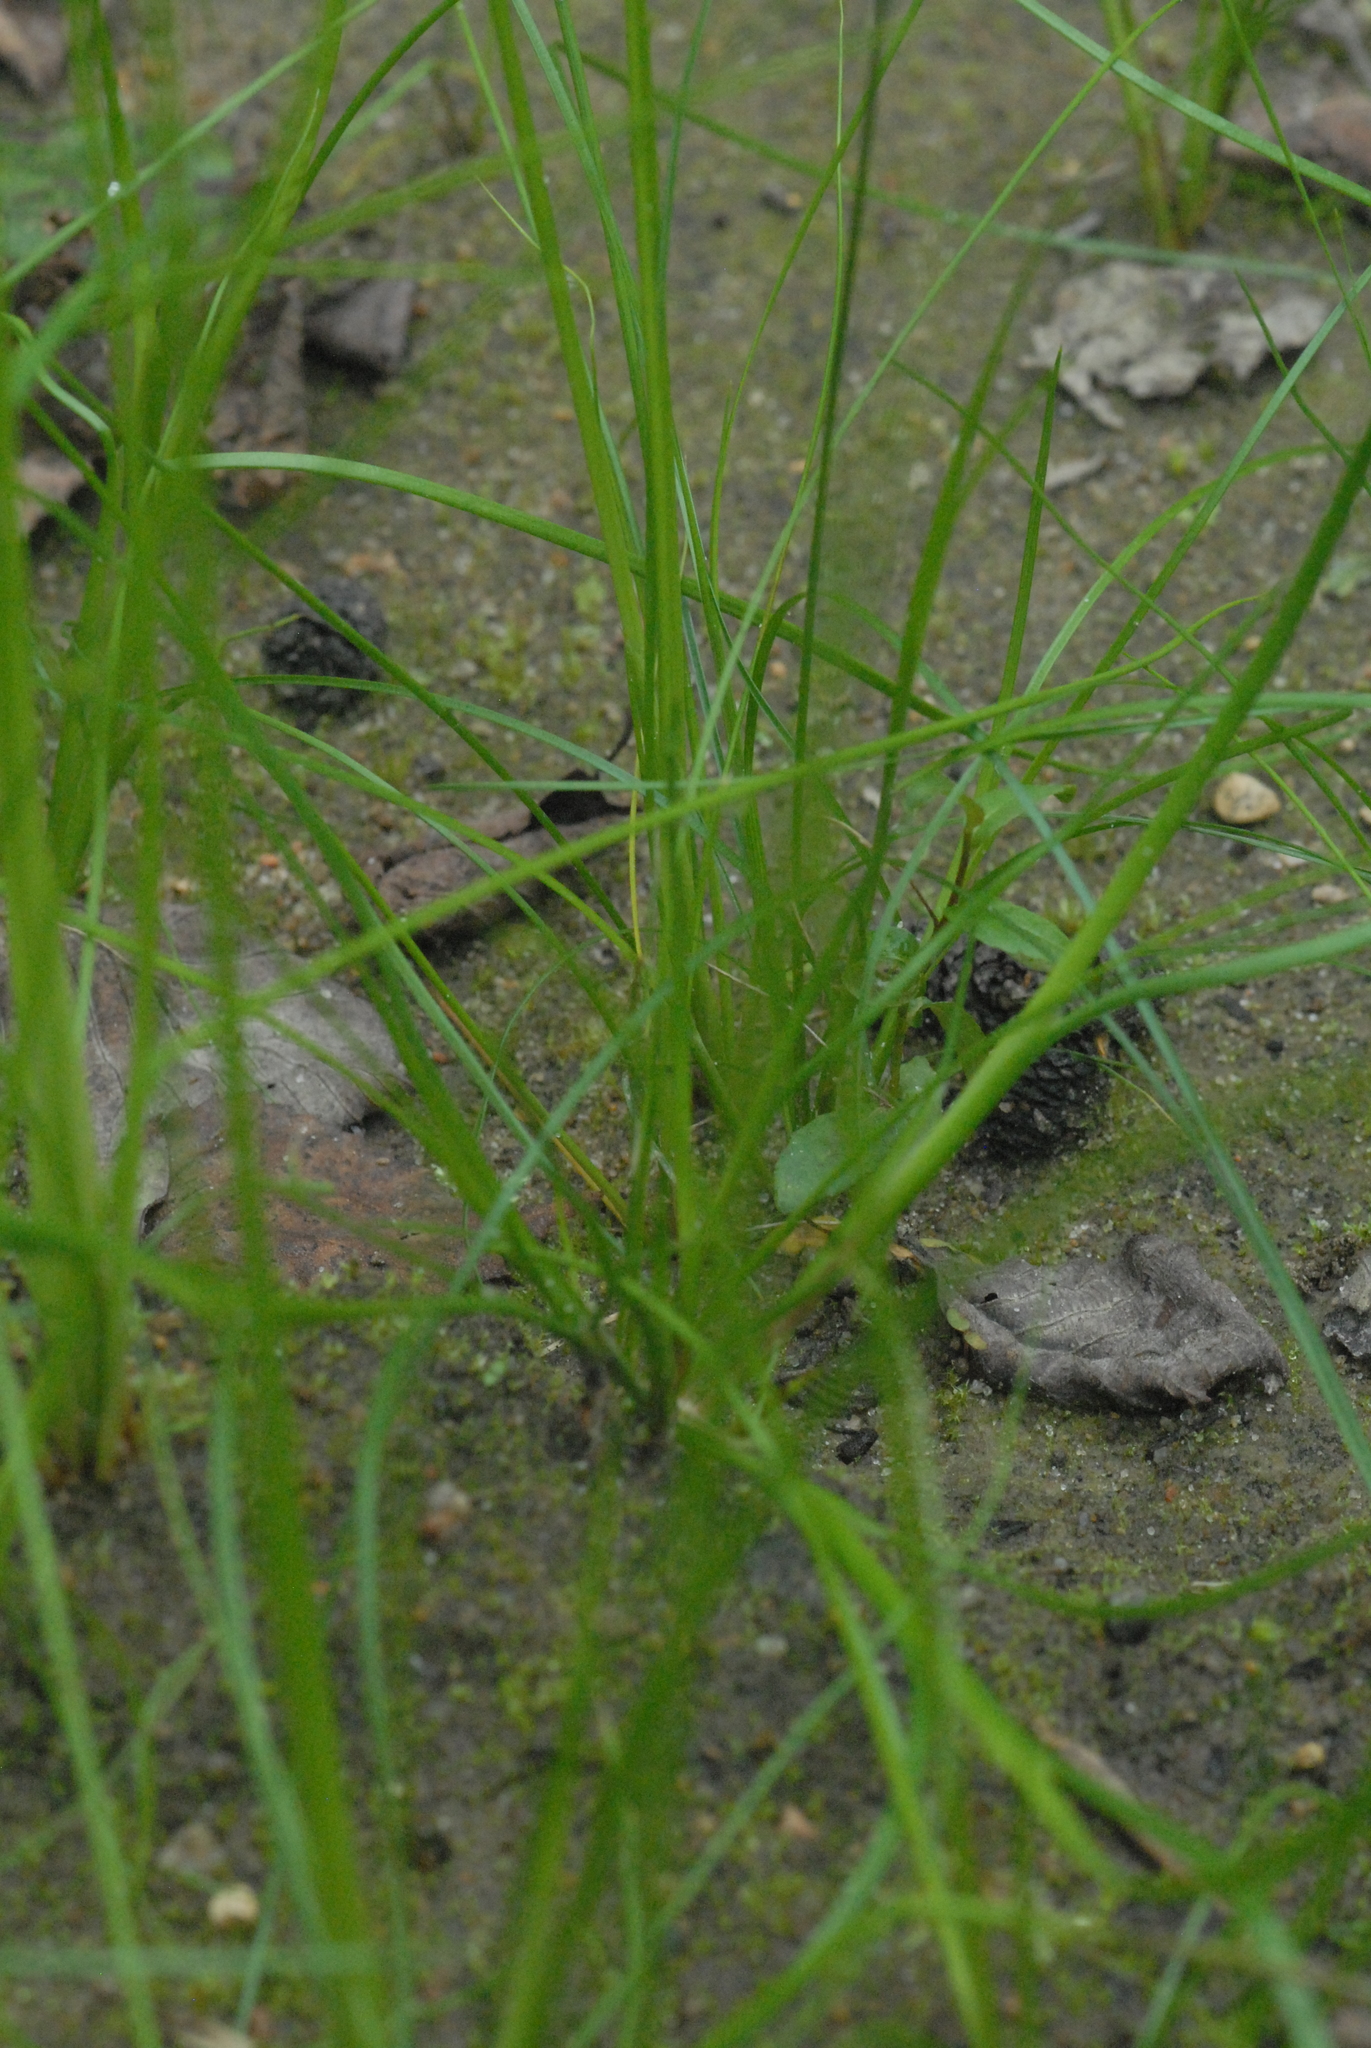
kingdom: Plantae
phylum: Tracheophyta
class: Liliopsida
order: Poales
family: Juncaceae
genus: Juncus
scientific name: Juncus bufonius
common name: Toad rush
